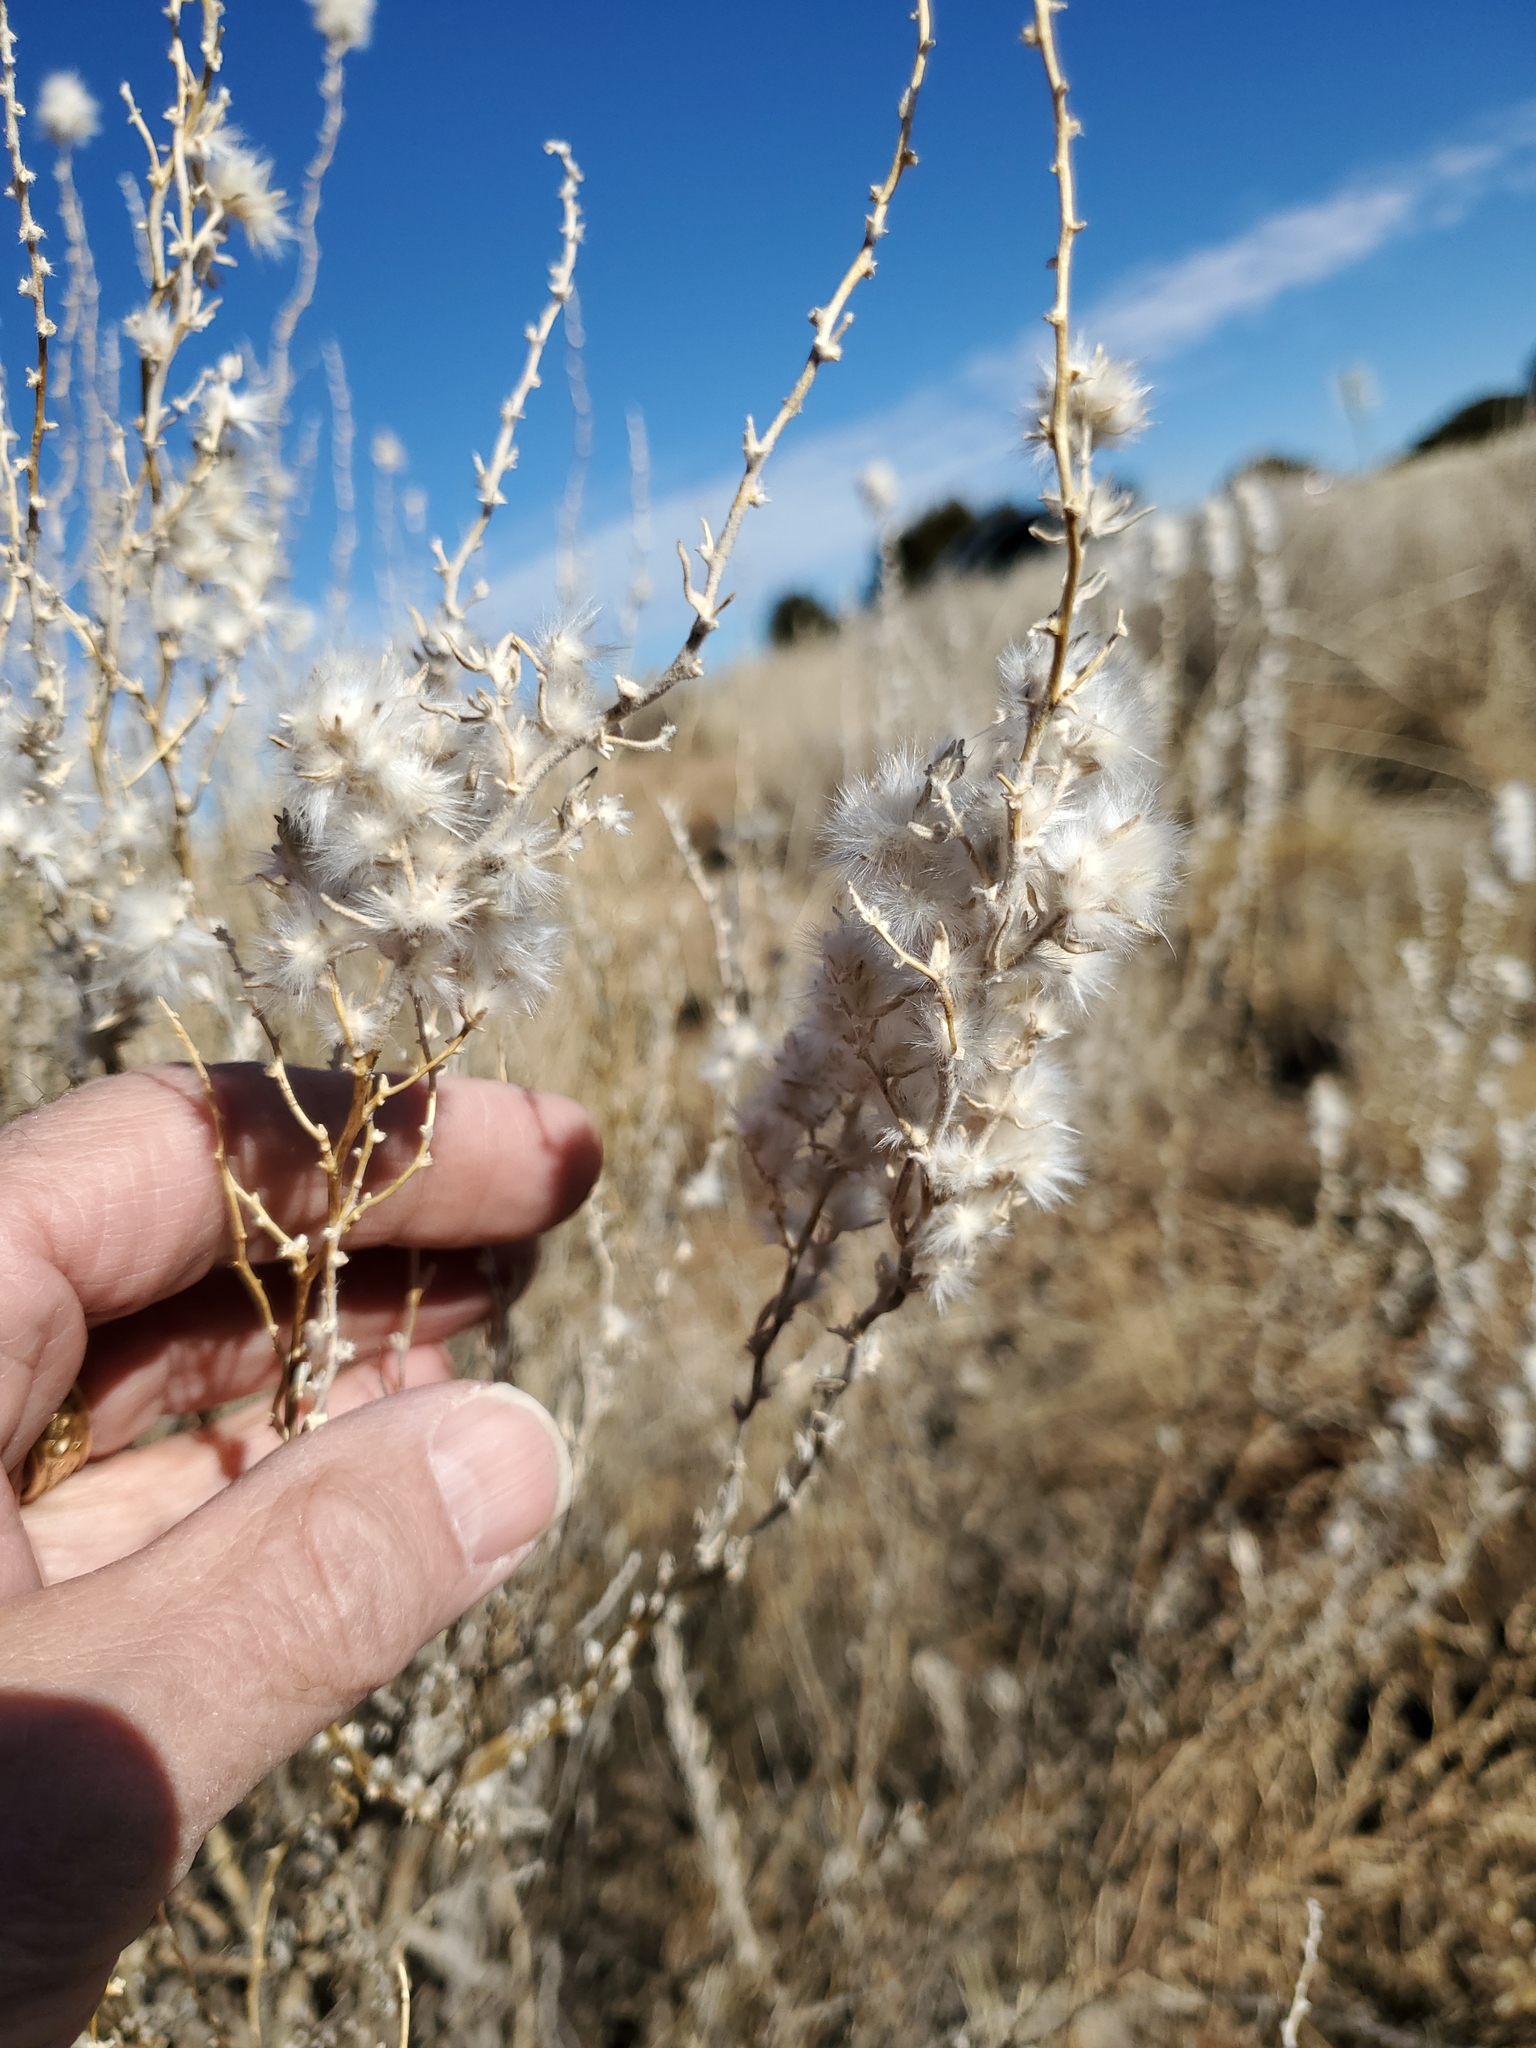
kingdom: Plantae
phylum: Tracheophyta
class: Magnoliopsida
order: Caryophyllales
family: Amaranthaceae
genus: Krascheninnikovia
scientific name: Krascheninnikovia lanata
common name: Winterfat
